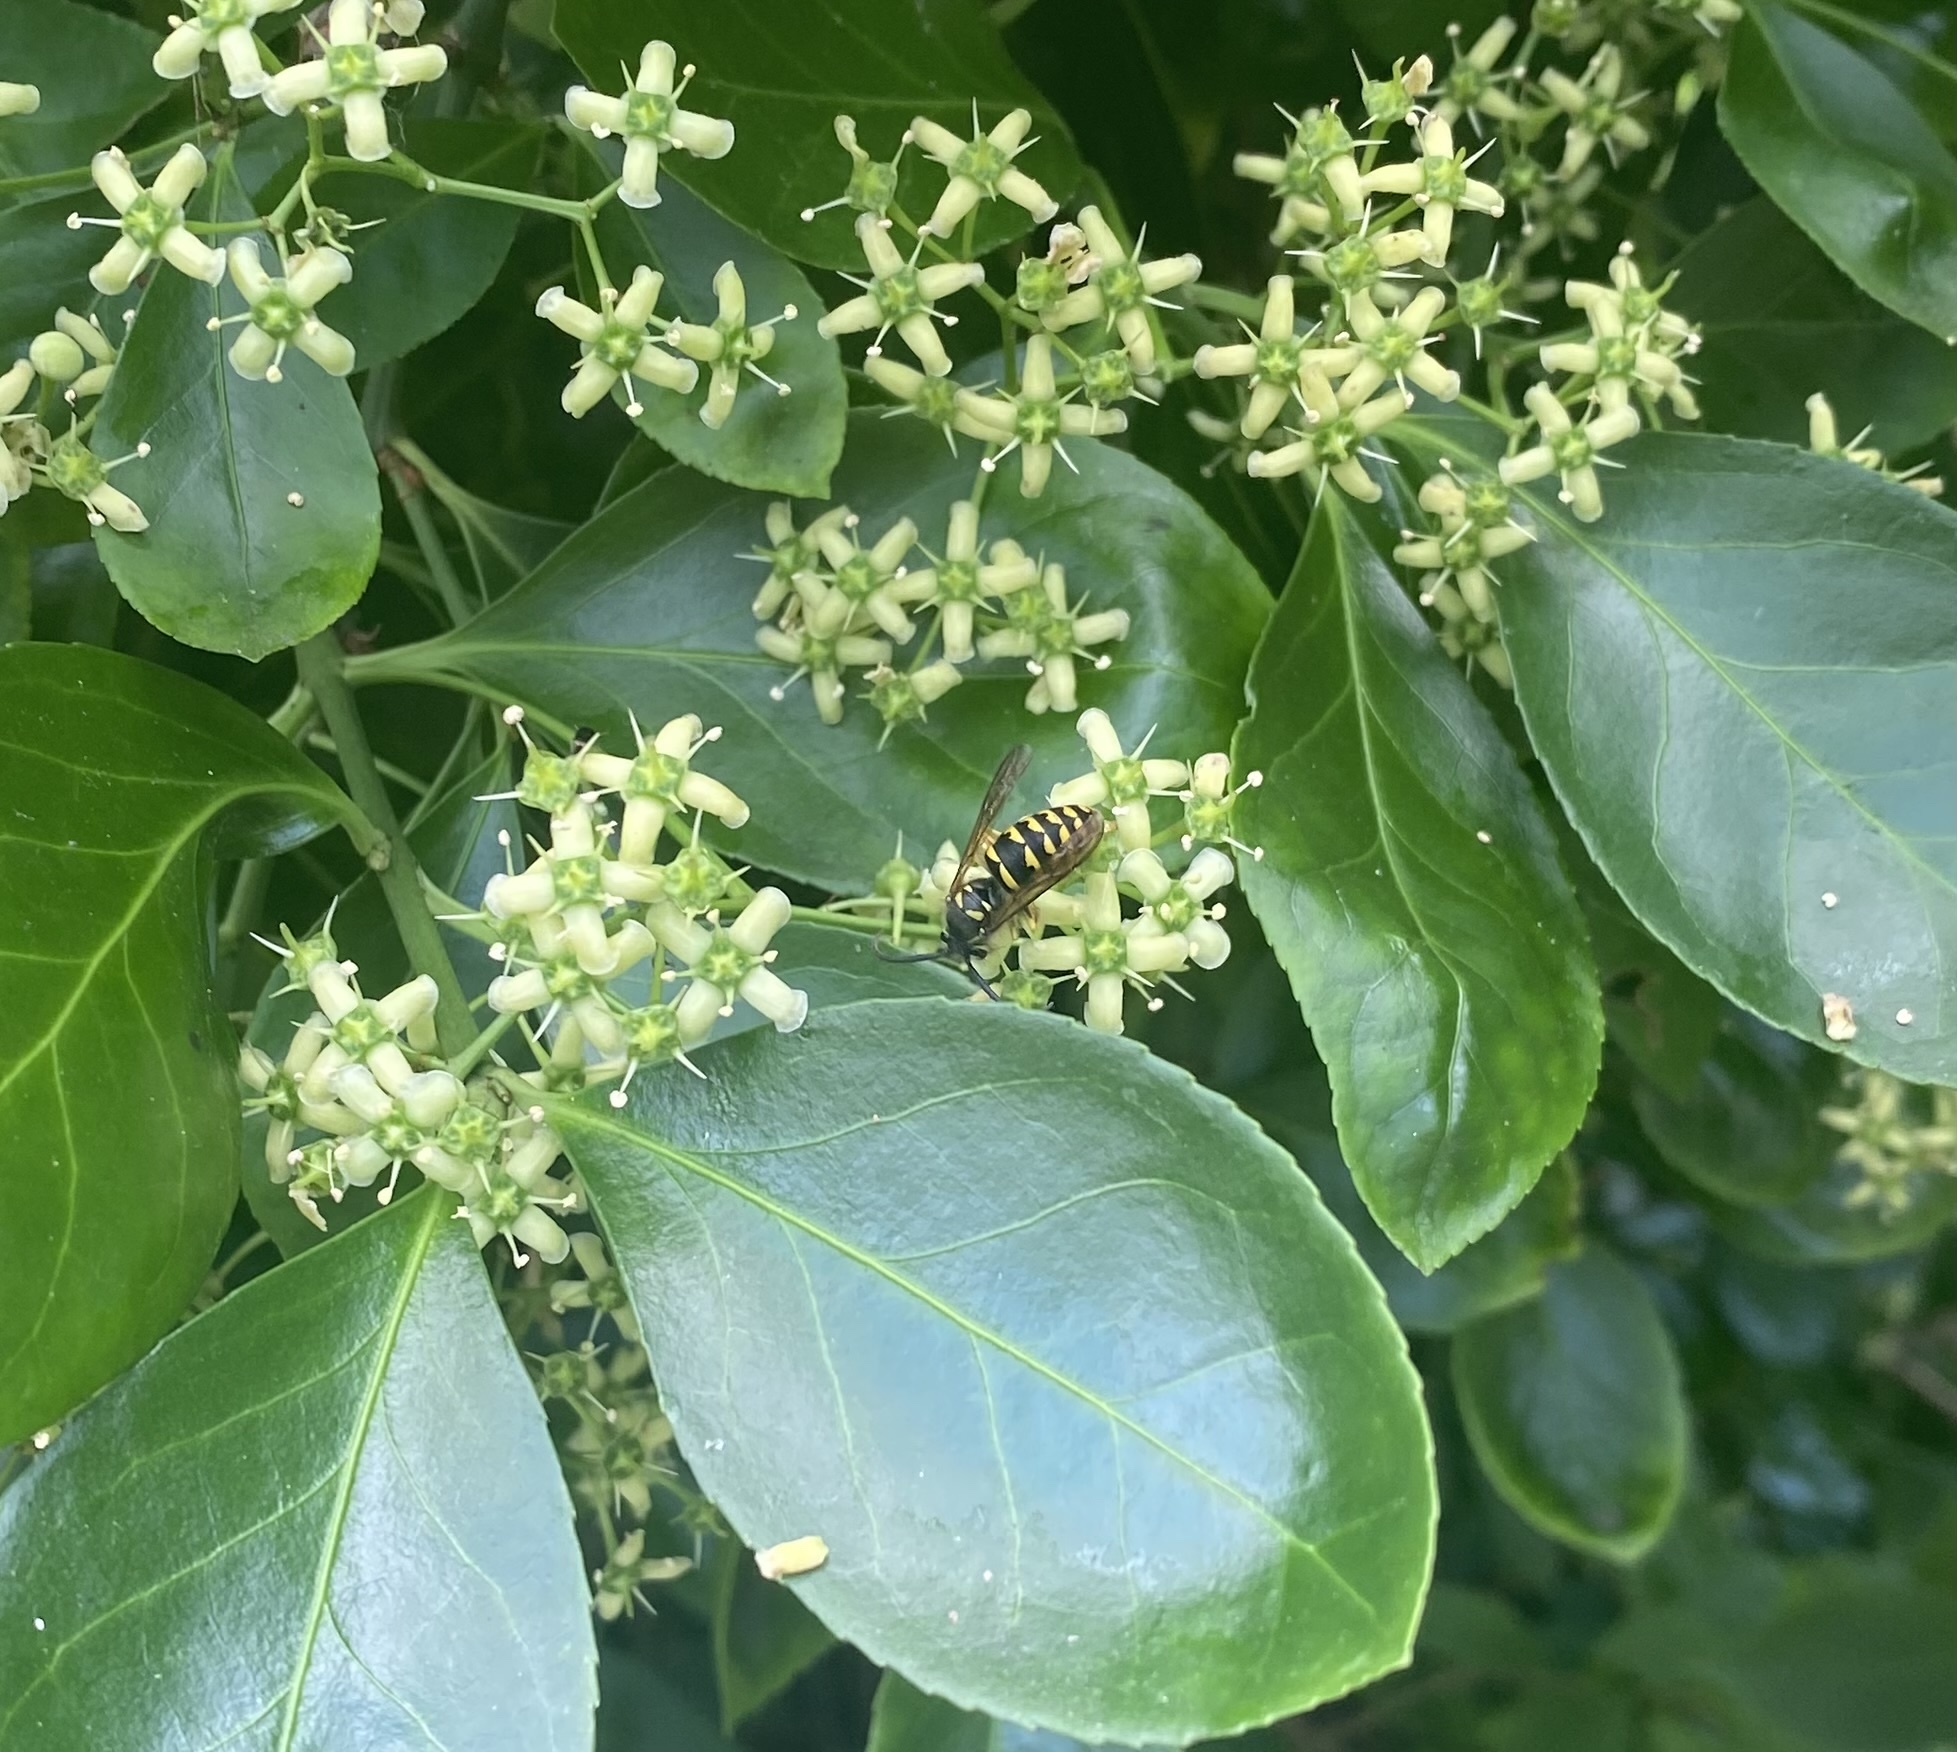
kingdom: Animalia
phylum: Arthropoda
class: Insecta
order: Hymenoptera
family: Vespidae
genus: Dolichovespula
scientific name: Dolichovespula arenaria
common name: Aerial yellowjacket
